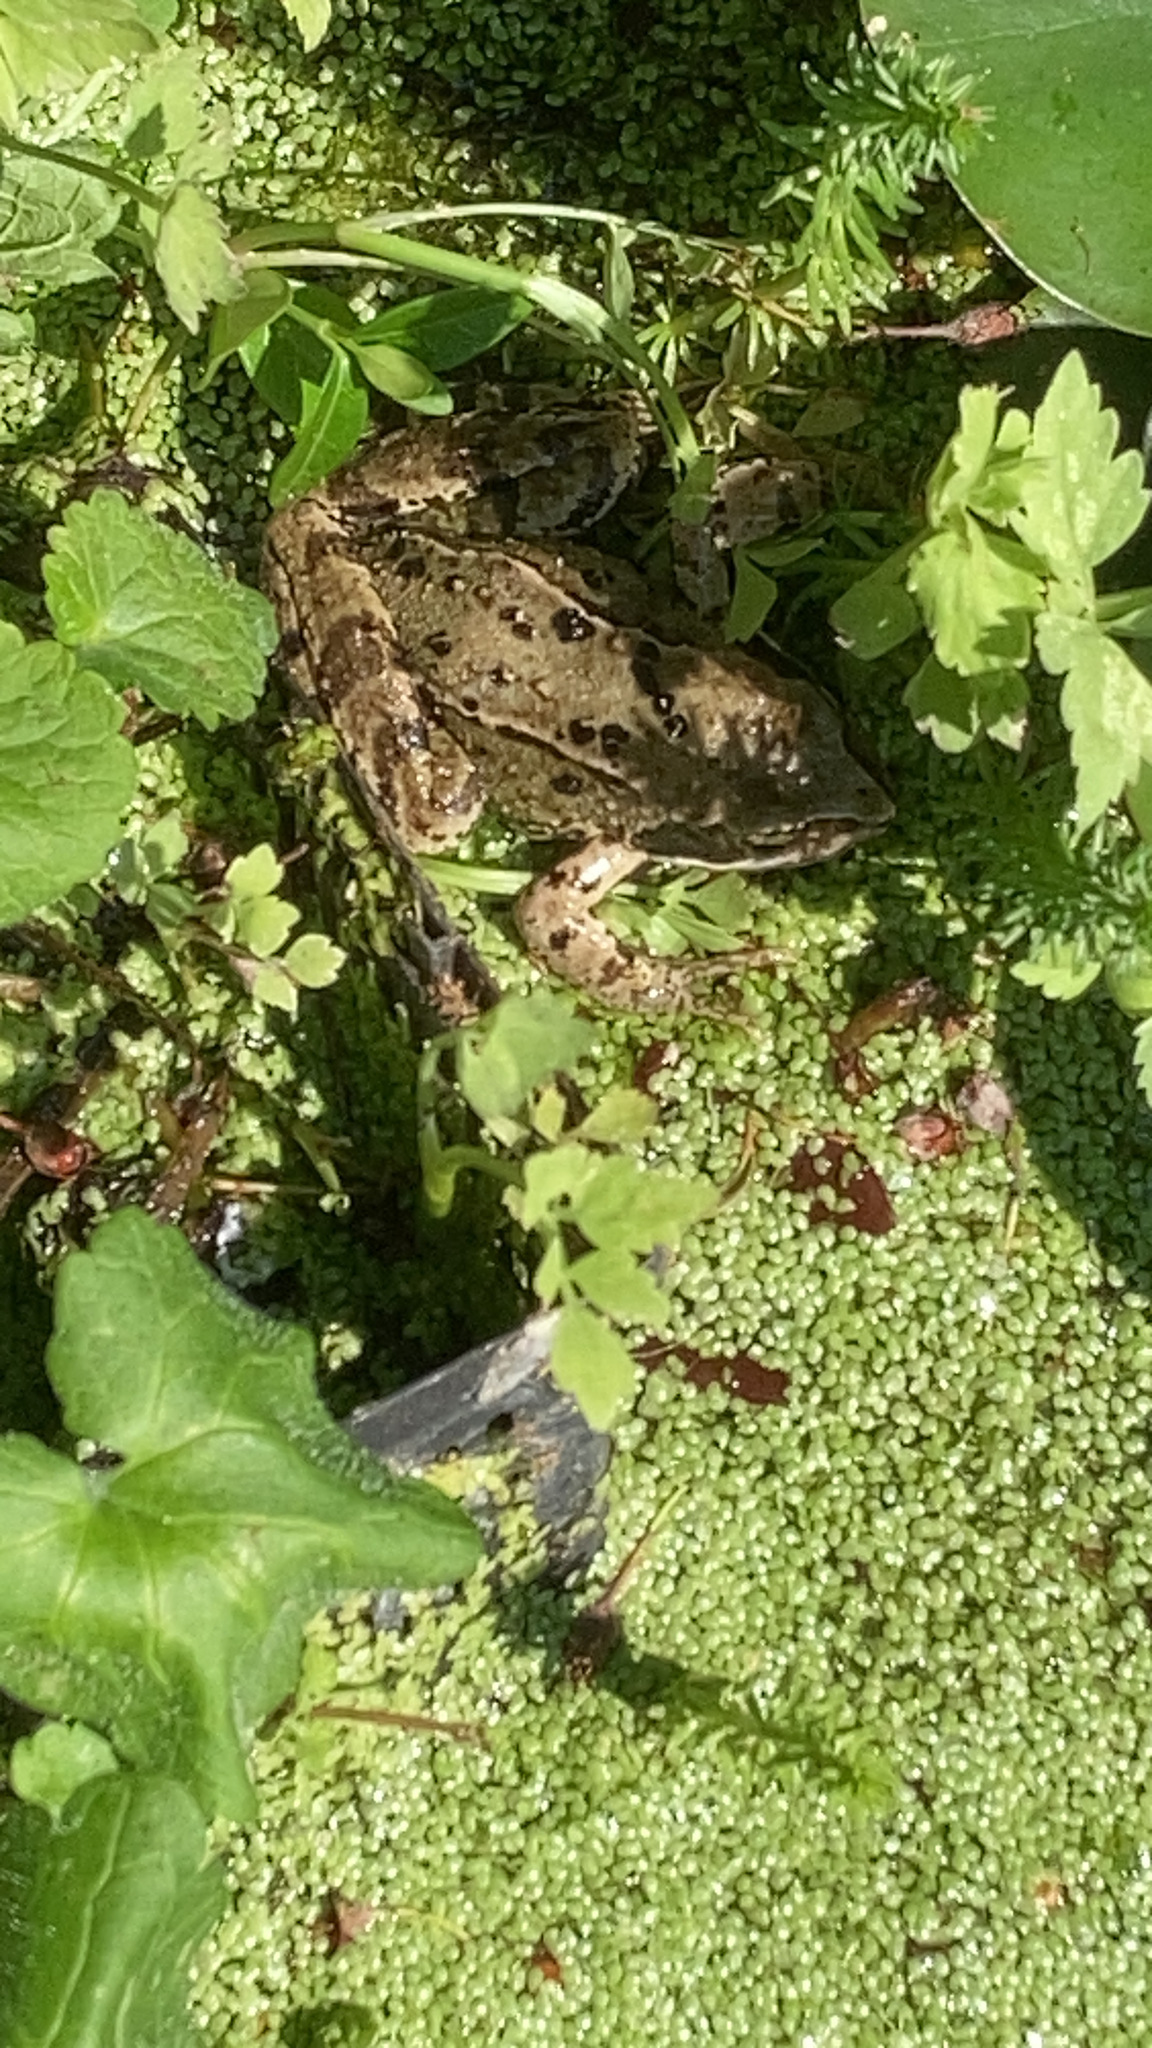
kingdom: Animalia
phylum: Chordata
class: Amphibia
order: Anura
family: Ranidae
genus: Rana
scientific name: Rana temporaria
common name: Common frog
